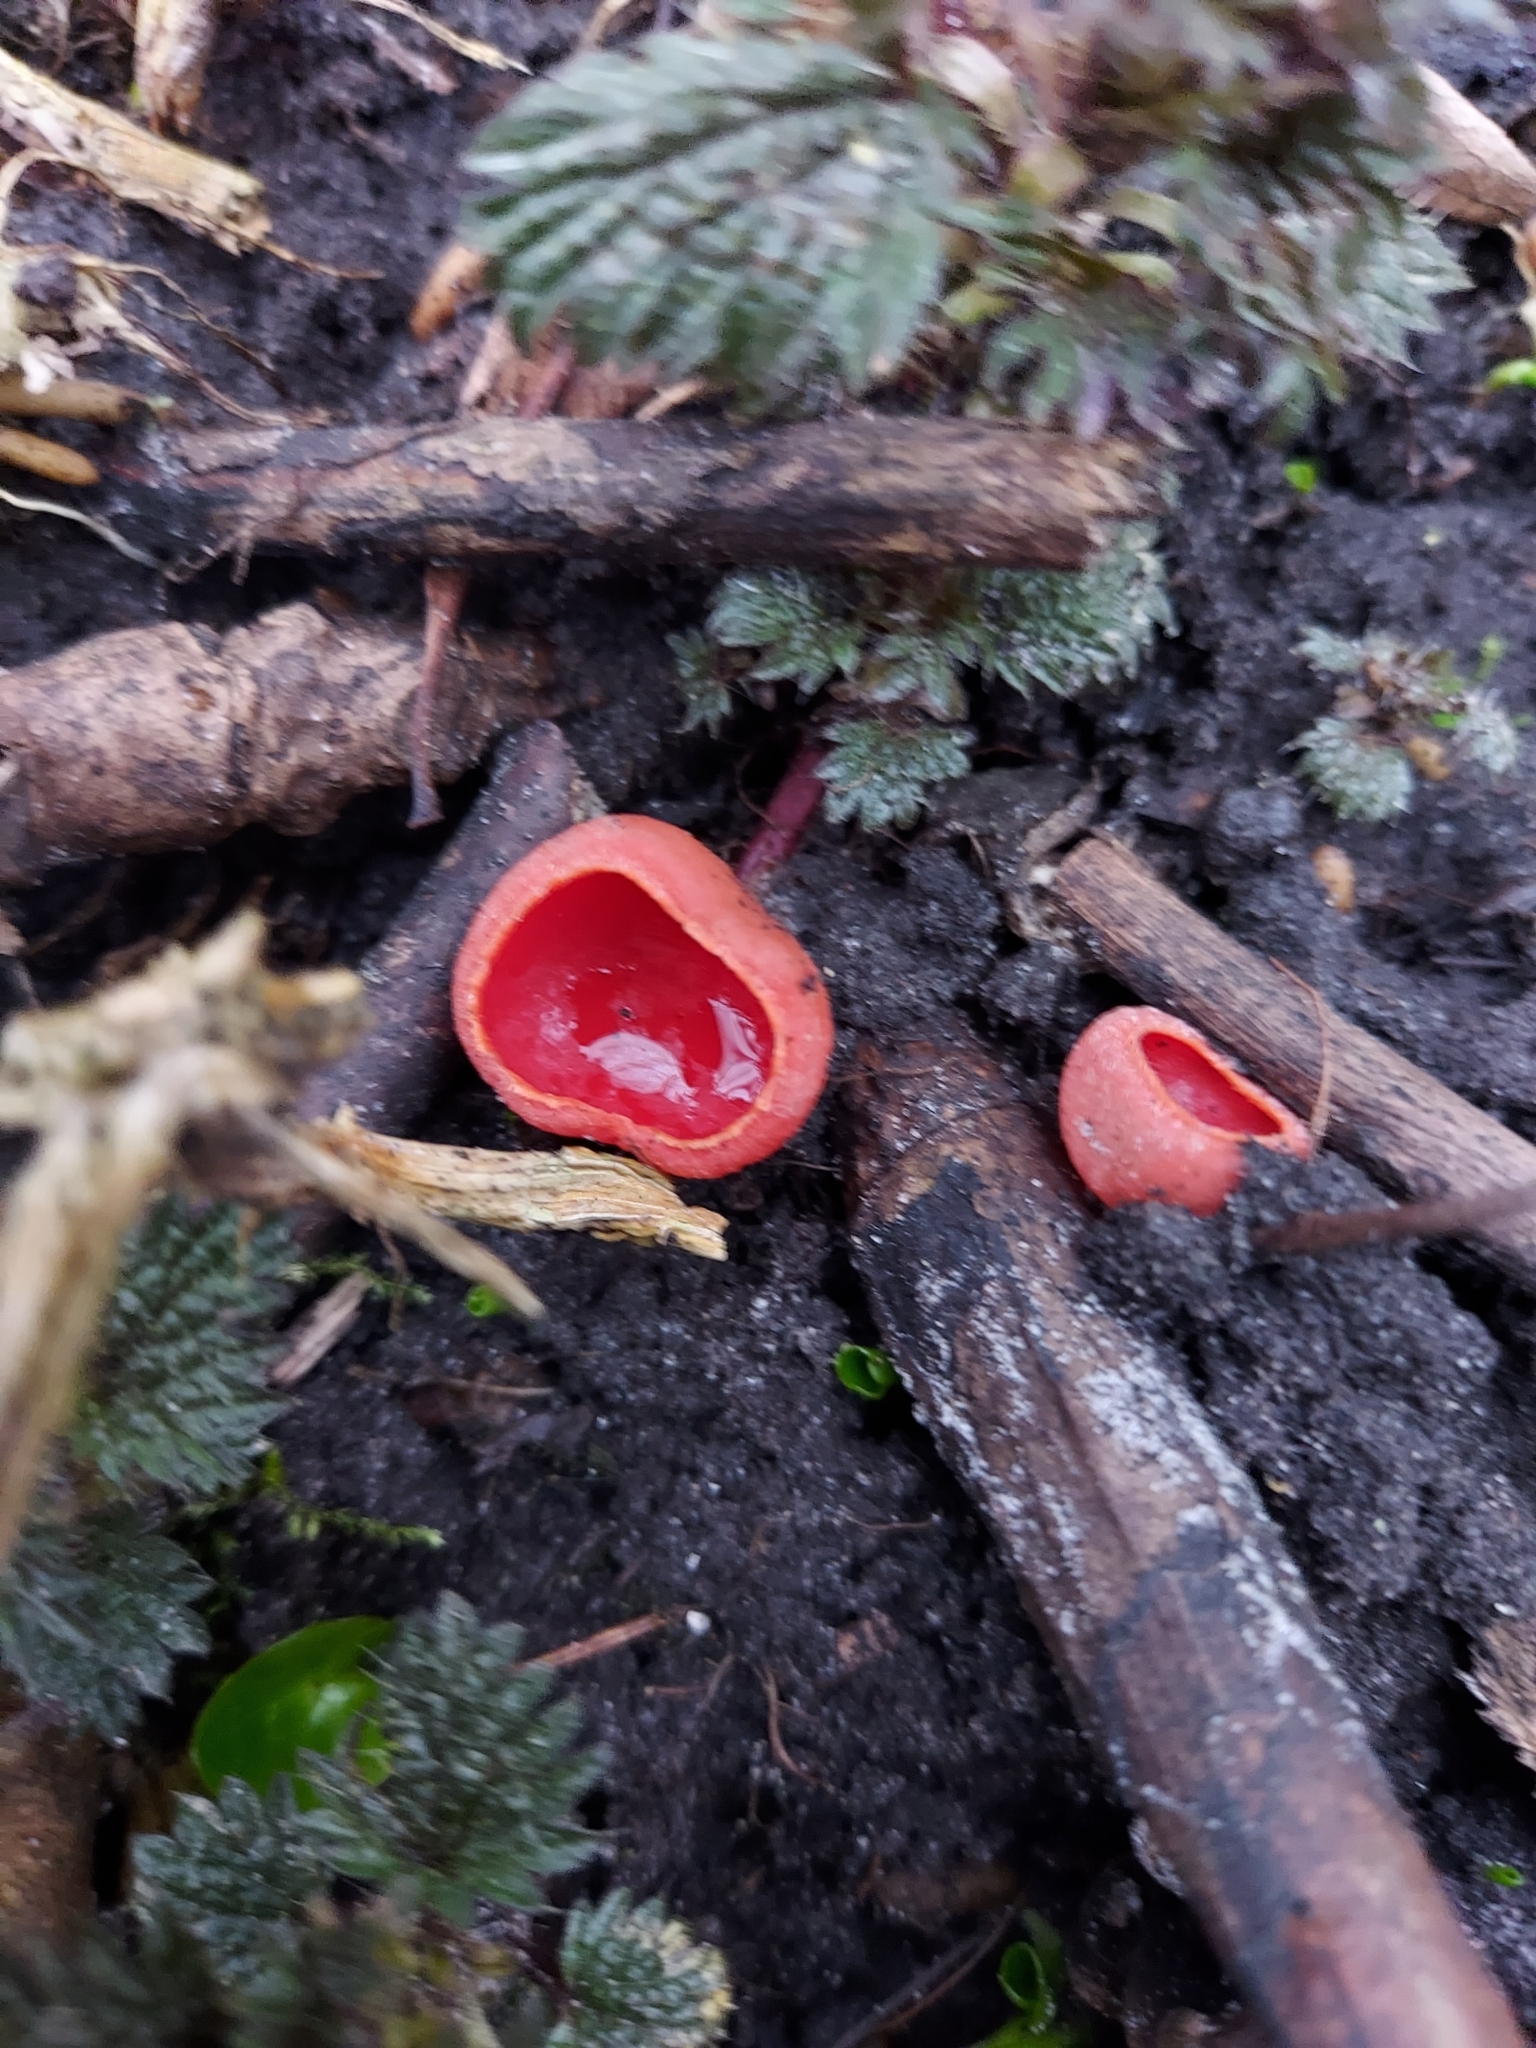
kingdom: Fungi
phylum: Ascomycota
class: Pezizomycetes
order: Pezizales
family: Sarcoscyphaceae
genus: Sarcoscypha
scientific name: Sarcoscypha
